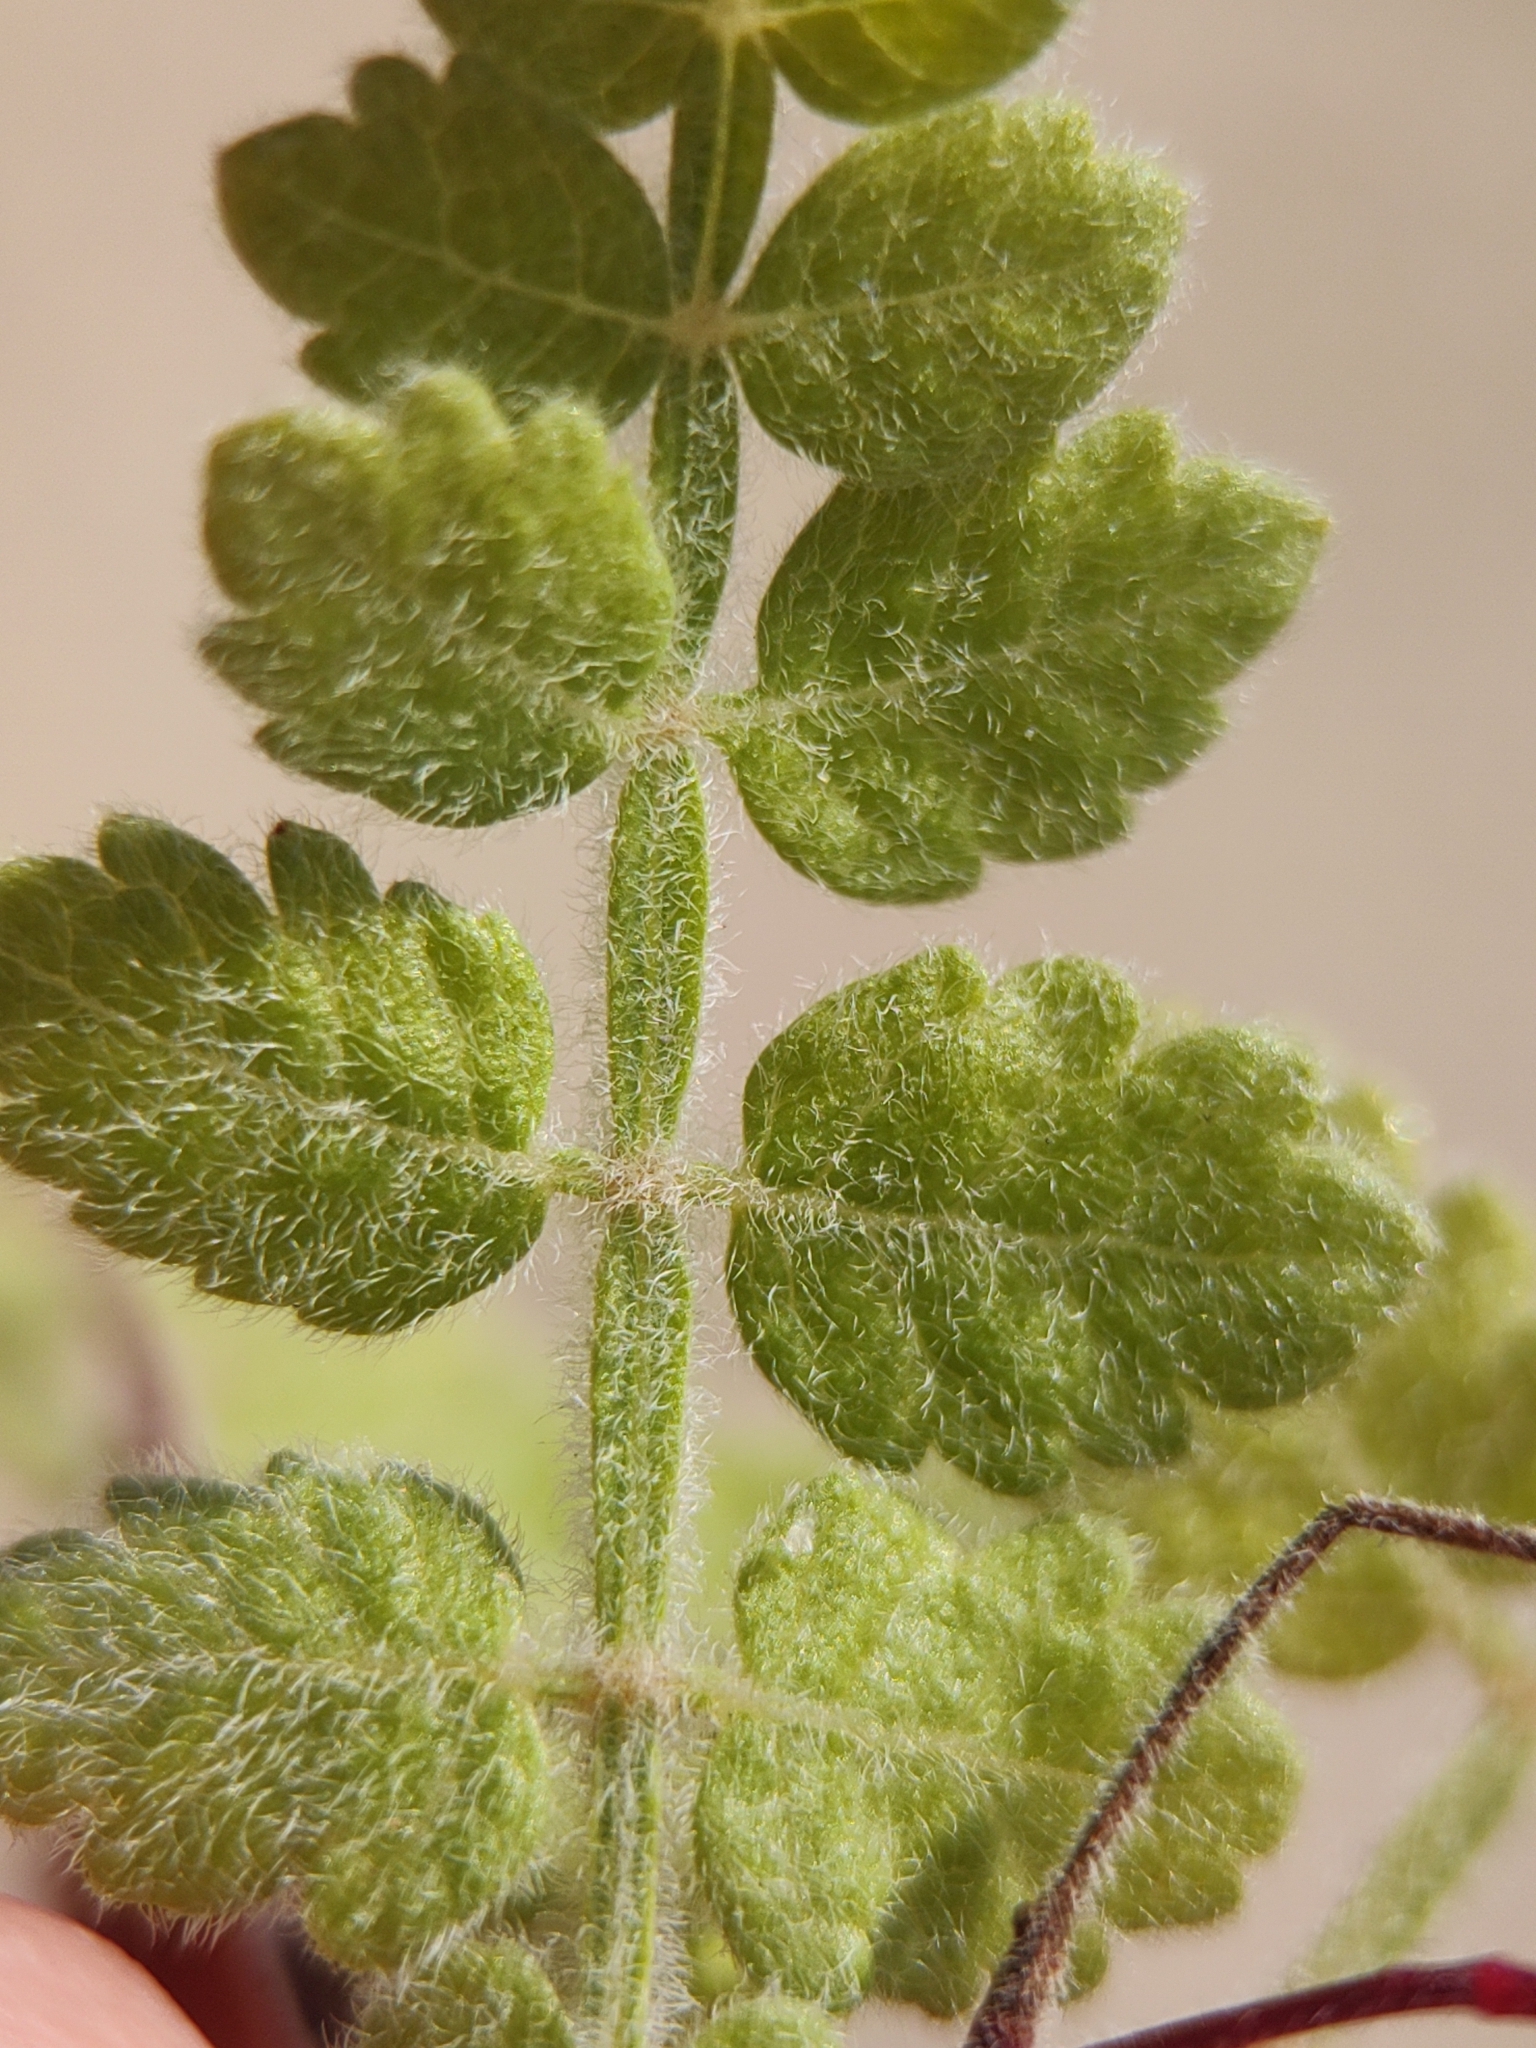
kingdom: Plantae
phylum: Tracheophyta
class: Magnoliopsida
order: Sapindales
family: Burseraceae
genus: Bursera
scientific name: Bursera filicifolia
